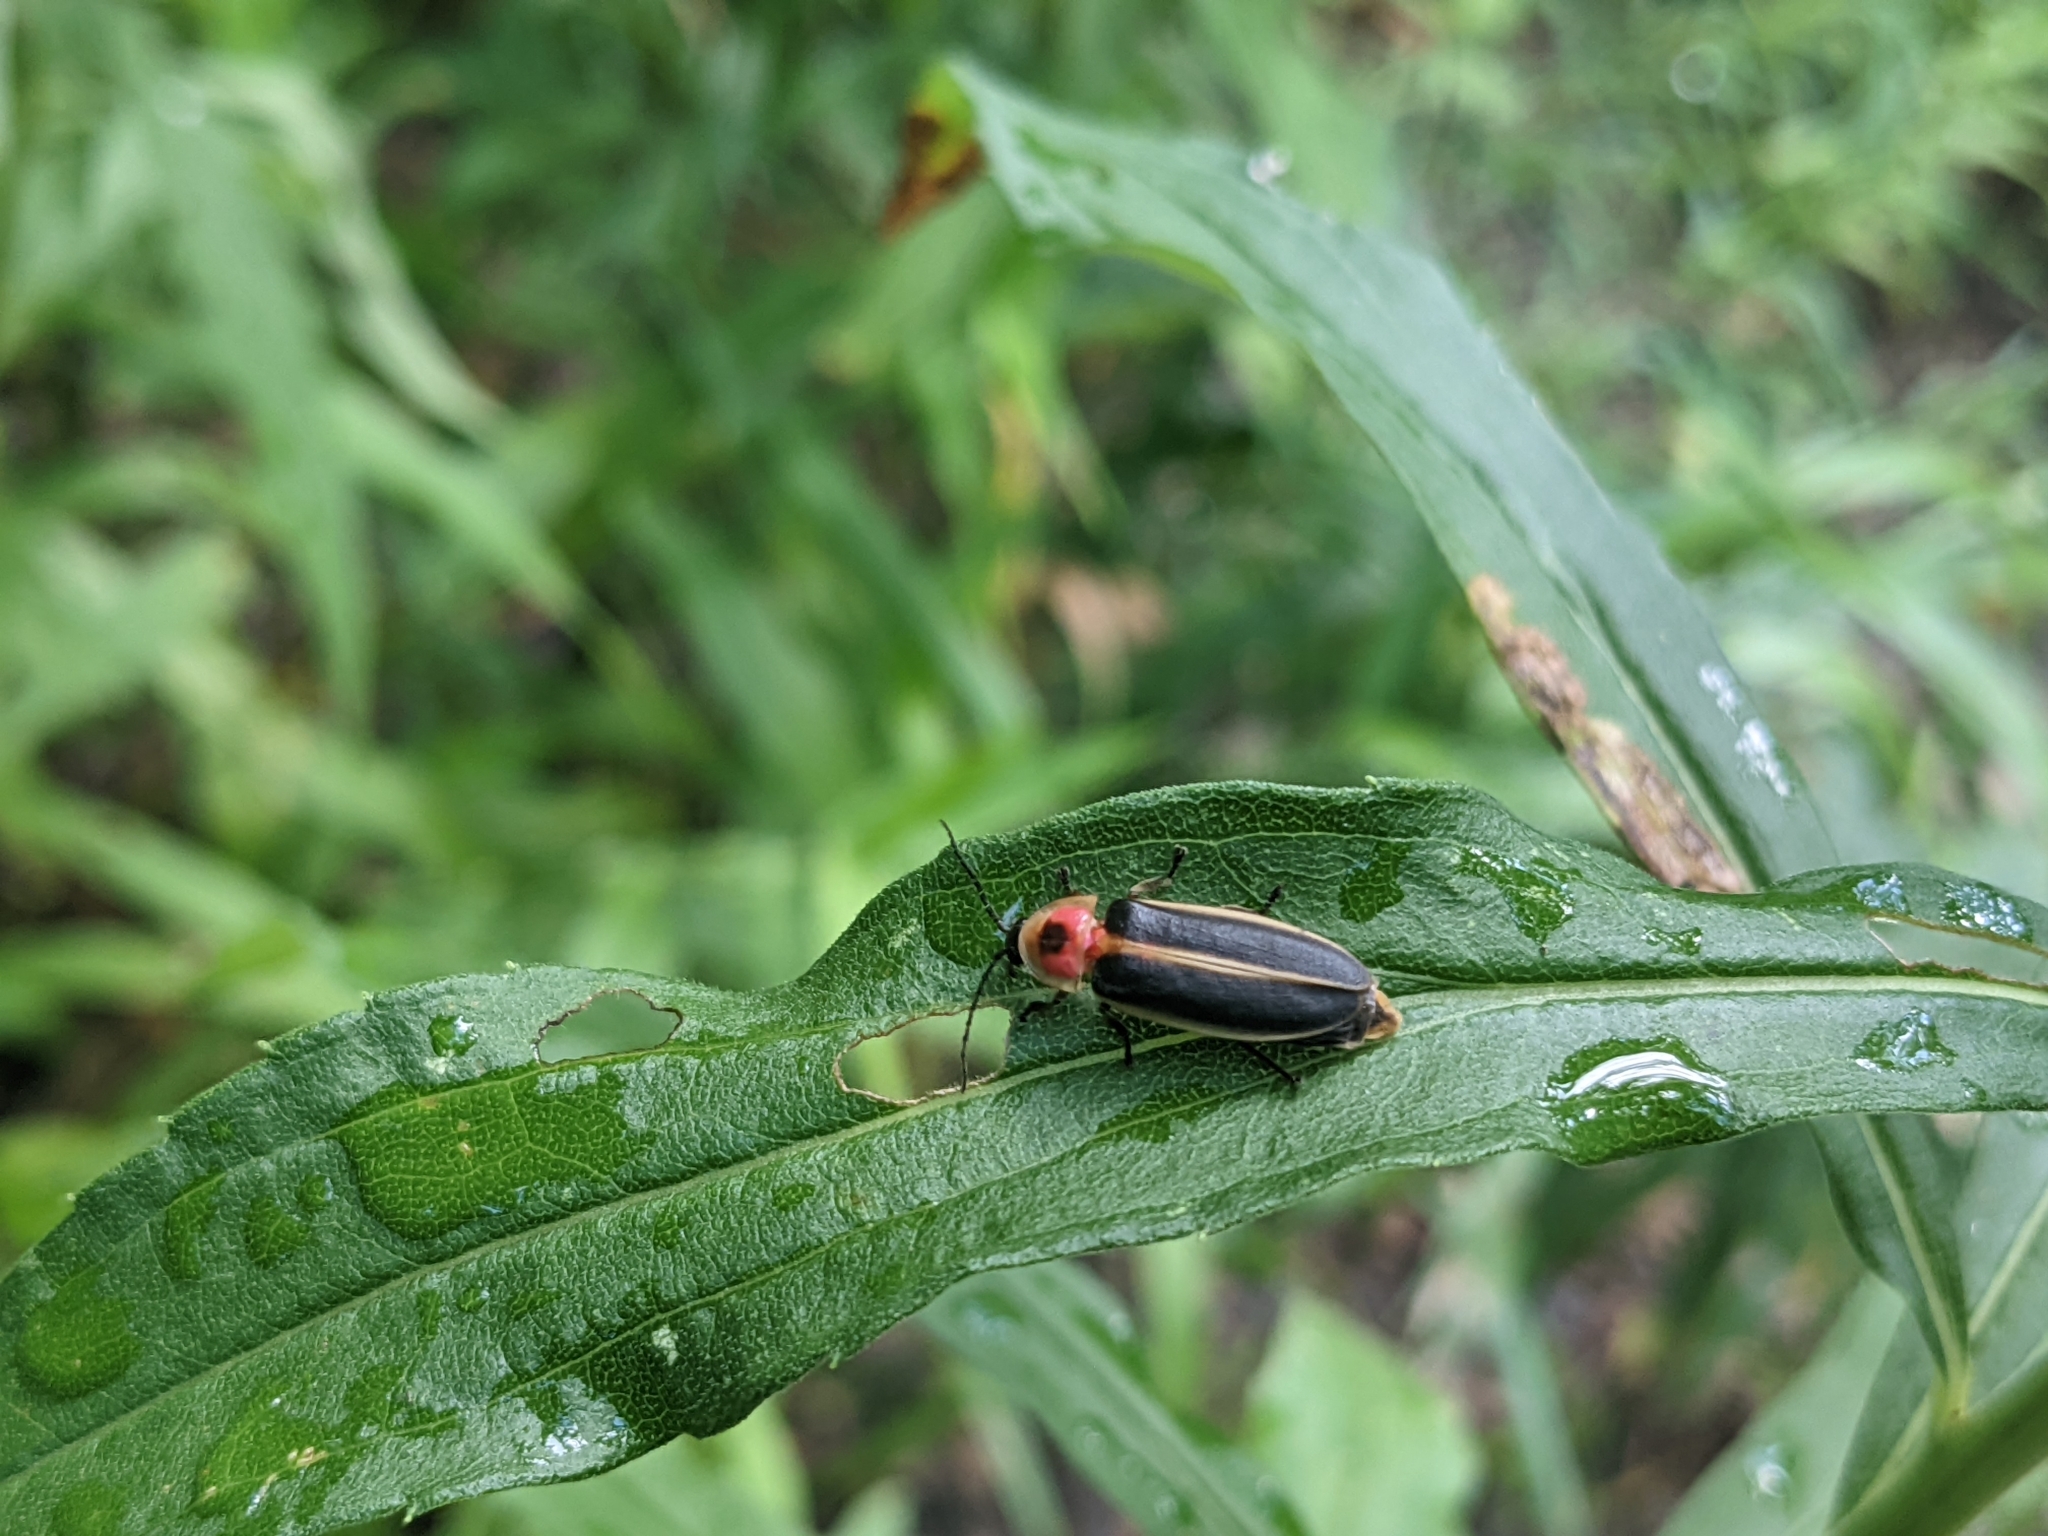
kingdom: Animalia
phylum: Arthropoda
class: Insecta
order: Coleoptera
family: Lampyridae
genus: Photinus
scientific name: Photinus pyralis
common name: Big dipper firefly
